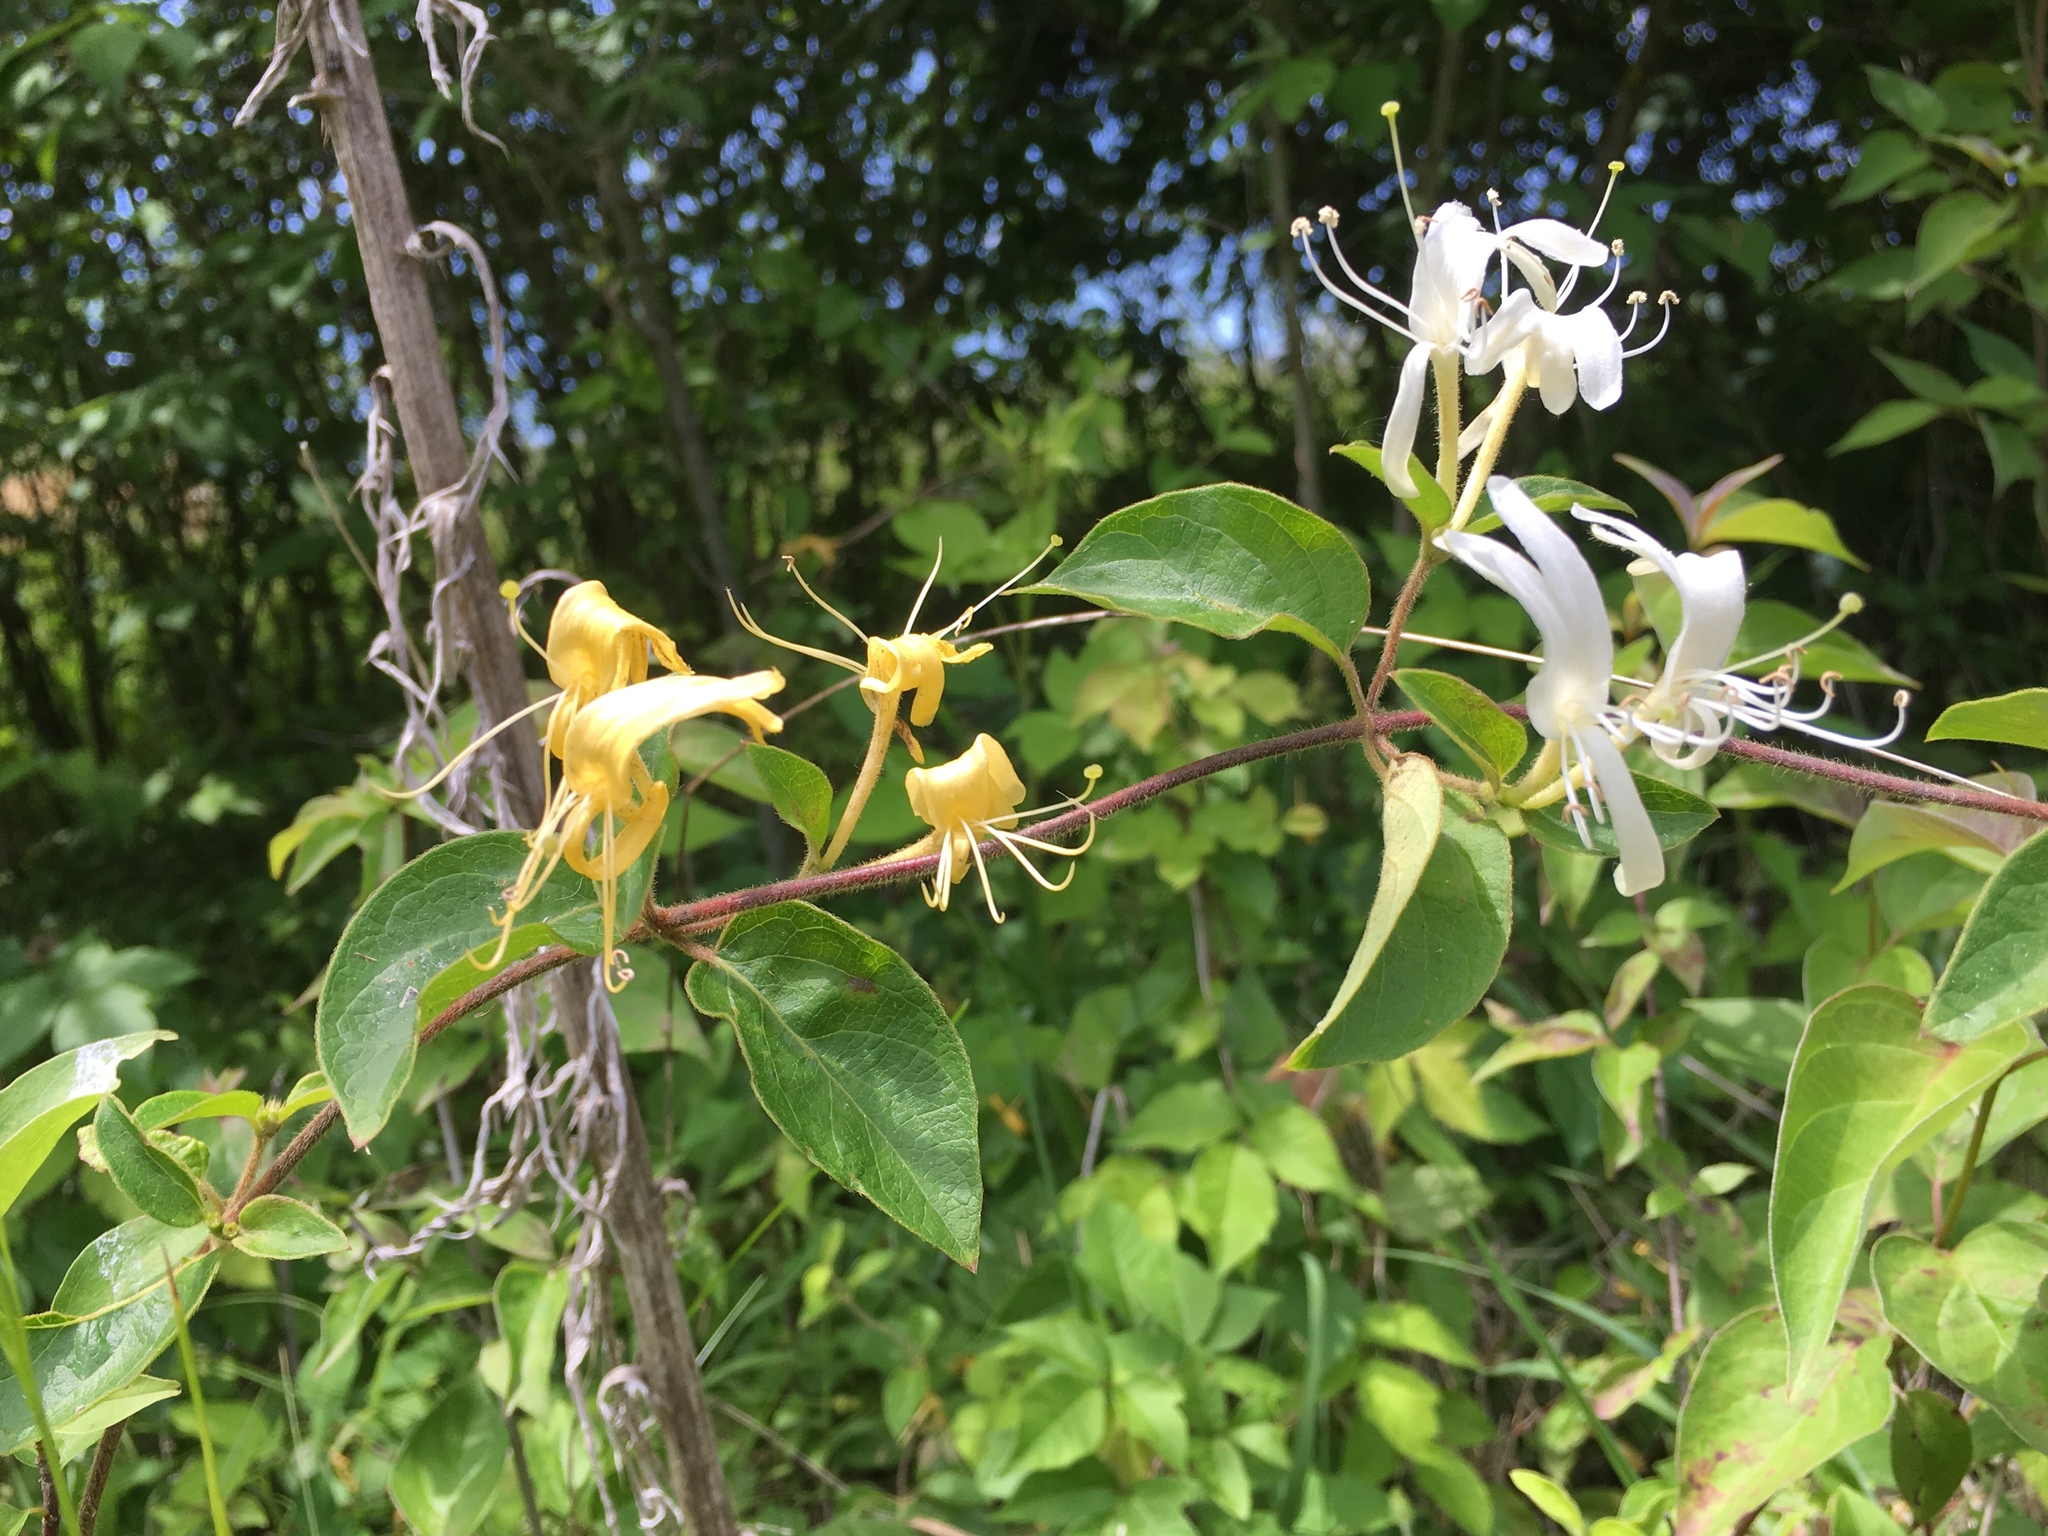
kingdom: Plantae
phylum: Tracheophyta
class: Magnoliopsida
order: Dipsacales
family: Caprifoliaceae
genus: Lonicera
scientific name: Lonicera japonica
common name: Japanese honeysuckle
